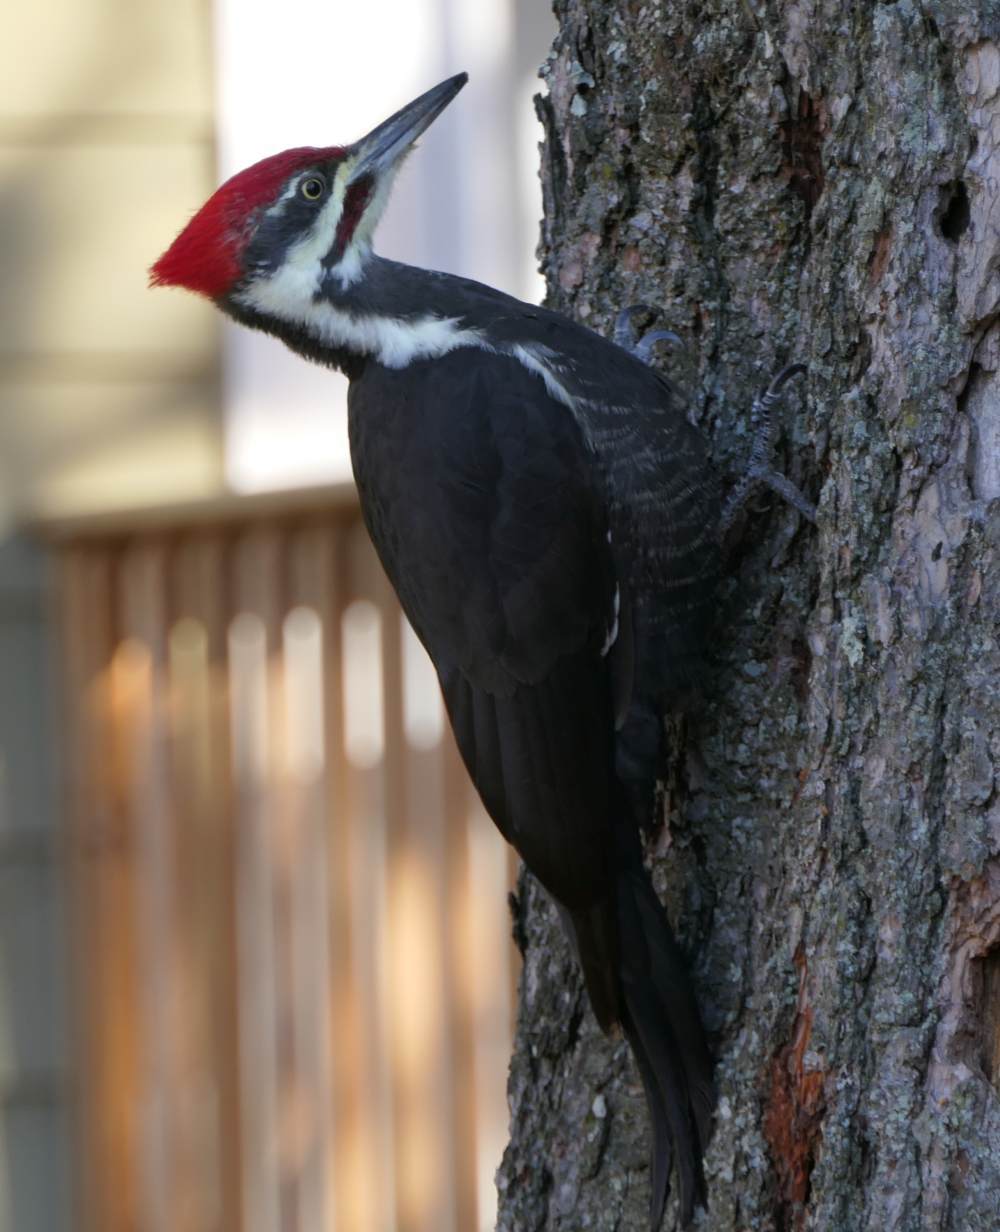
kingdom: Animalia
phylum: Chordata
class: Aves
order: Piciformes
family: Picidae
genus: Dryocopus
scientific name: Dryocopus pileatus
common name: Pileated woodpecker
